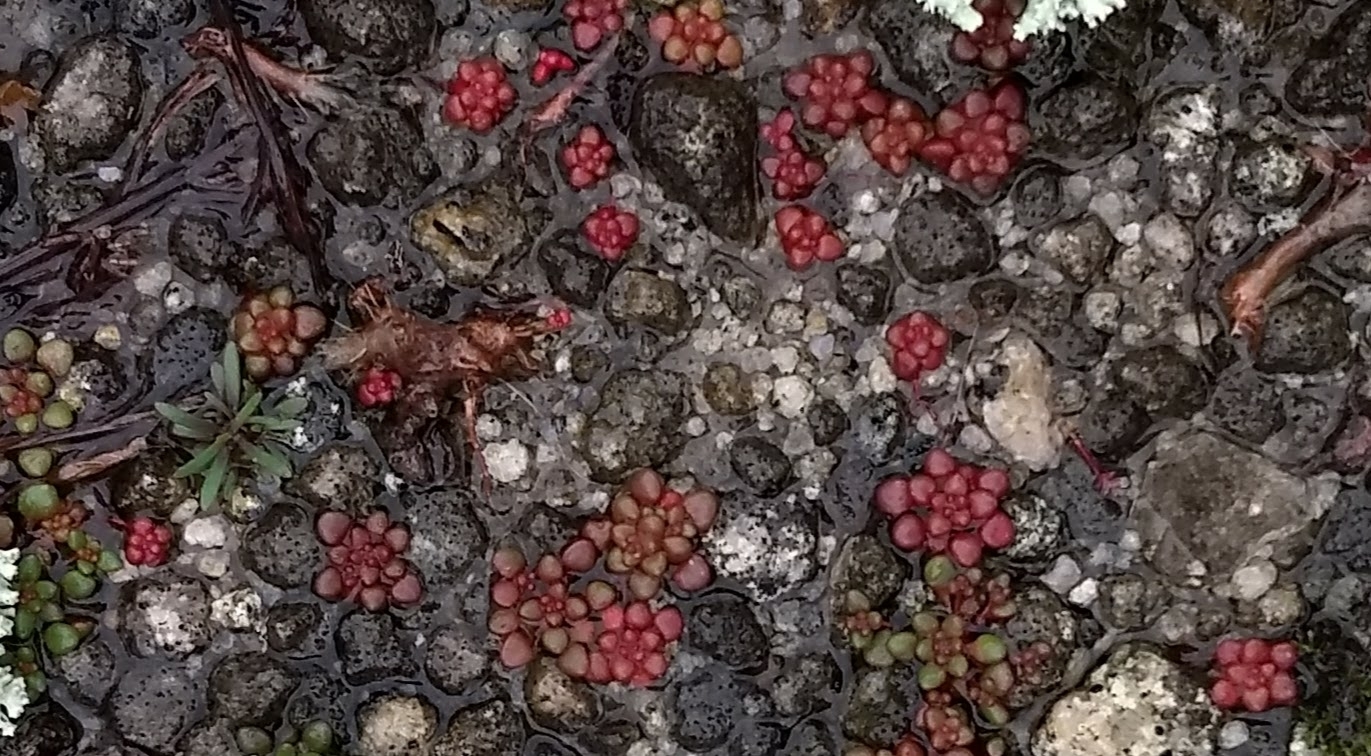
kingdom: Plantae
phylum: Tracheophyta
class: Magnoliopsida
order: Saxifragales
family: Crassulaceae
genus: Sedum
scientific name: Sedum smallii
